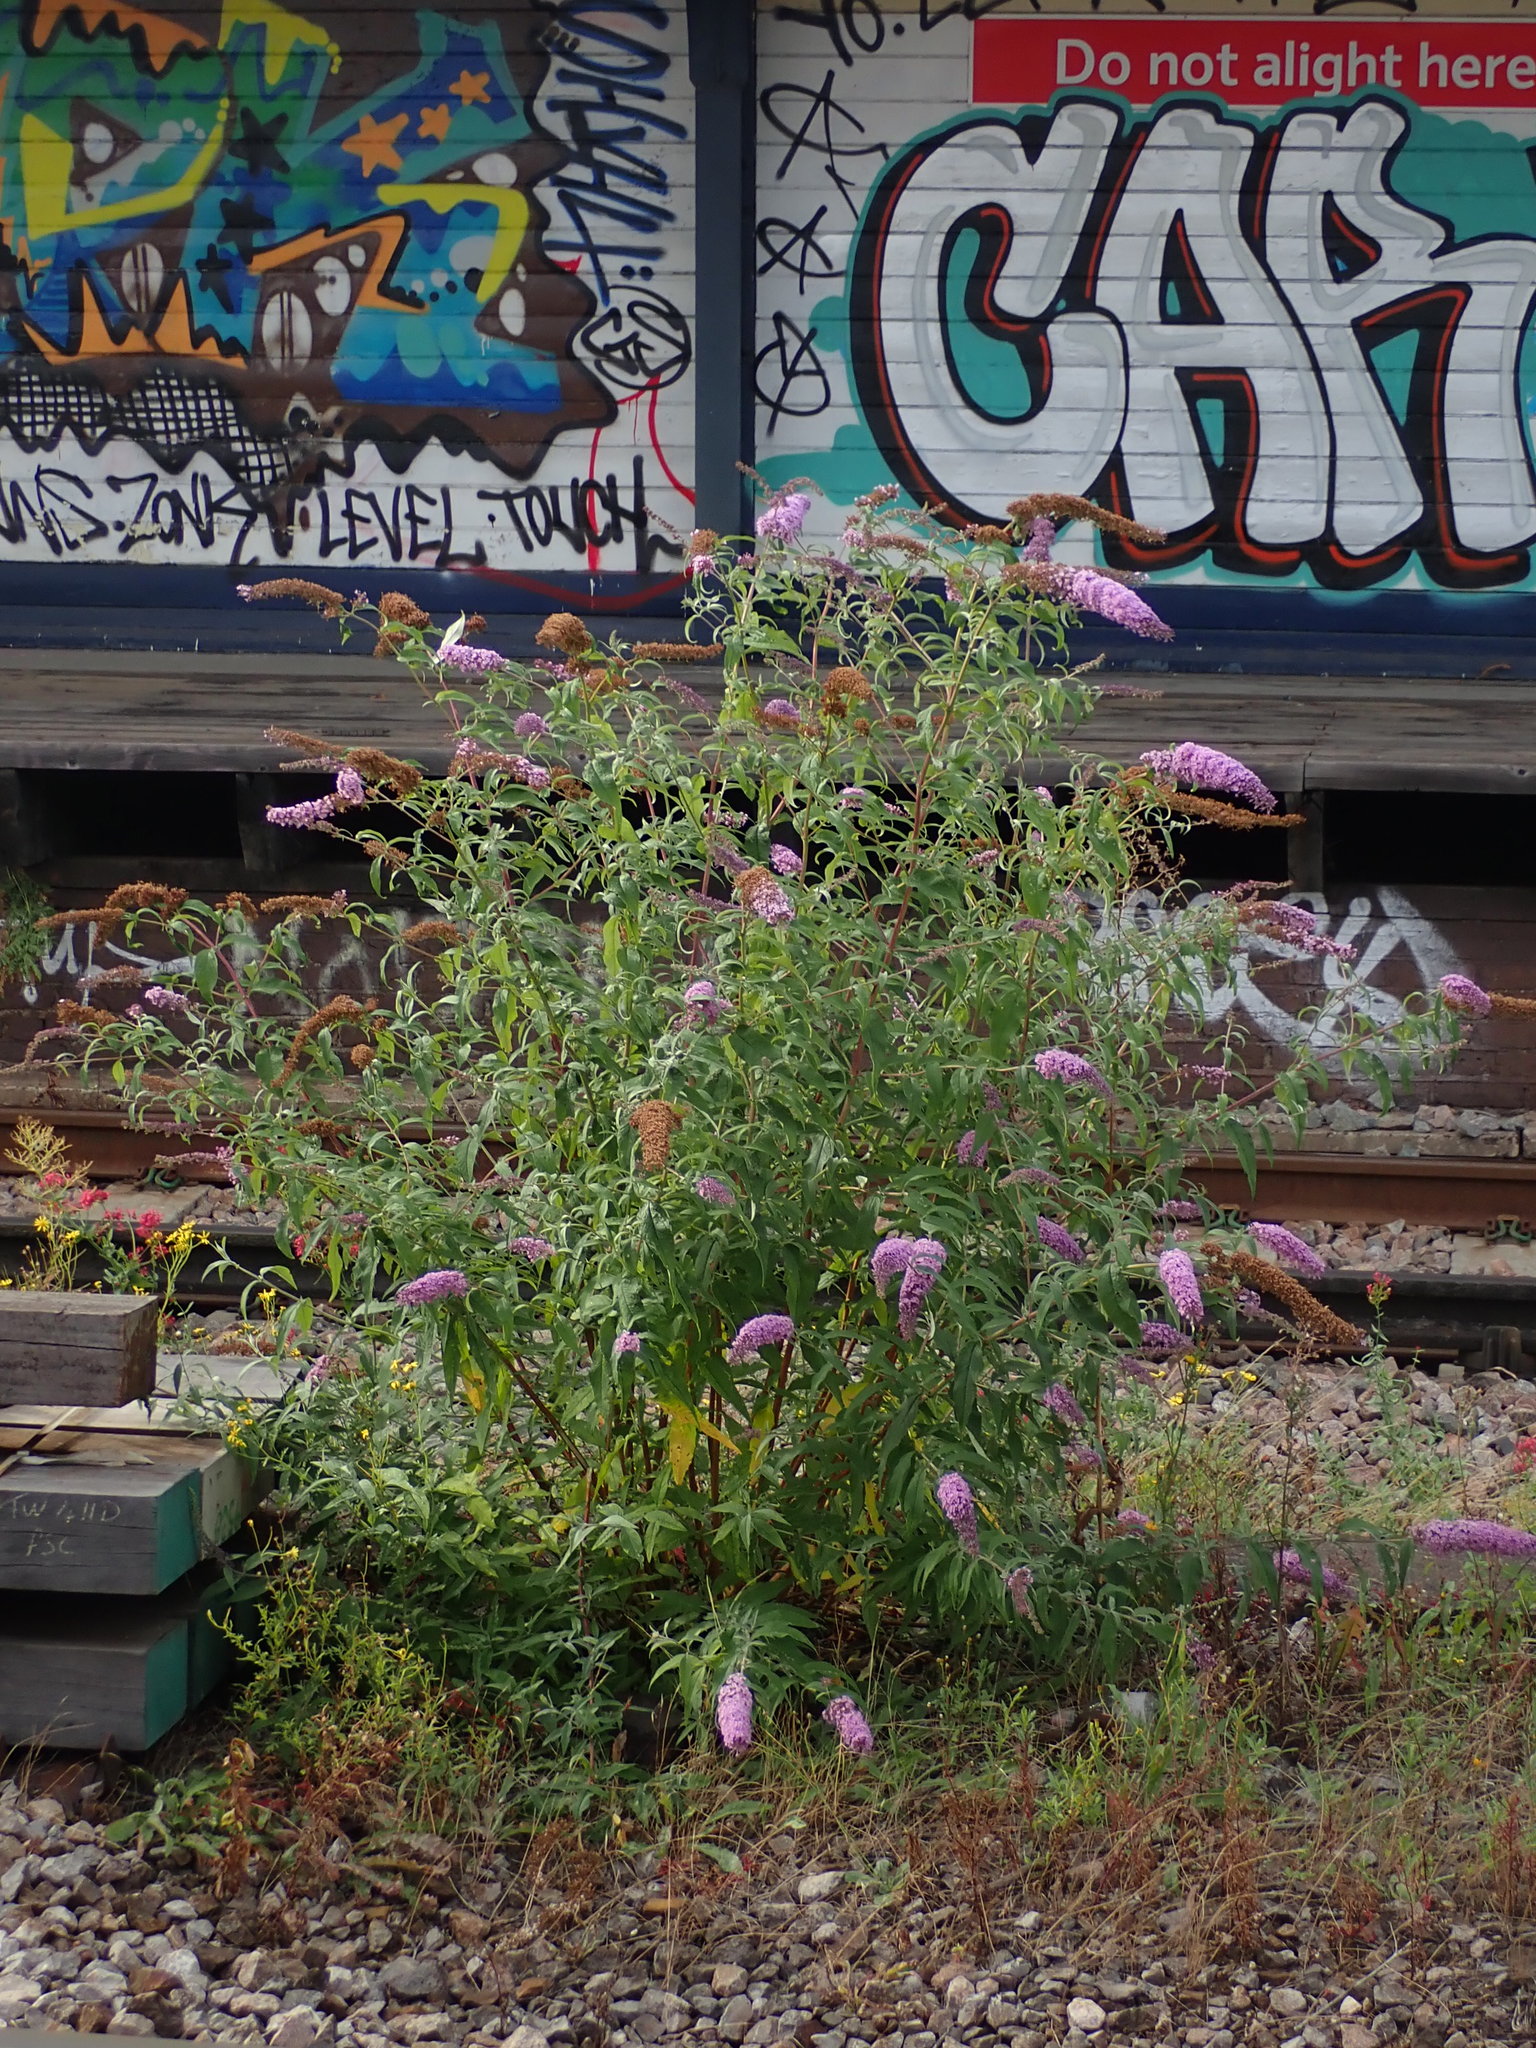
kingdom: Plantae
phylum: Tracheophyta
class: Magnoliopsida
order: Lamiales
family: Scrophulariaceae
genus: Buddleja
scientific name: Buddleja davidii
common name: Butterfly-bush
